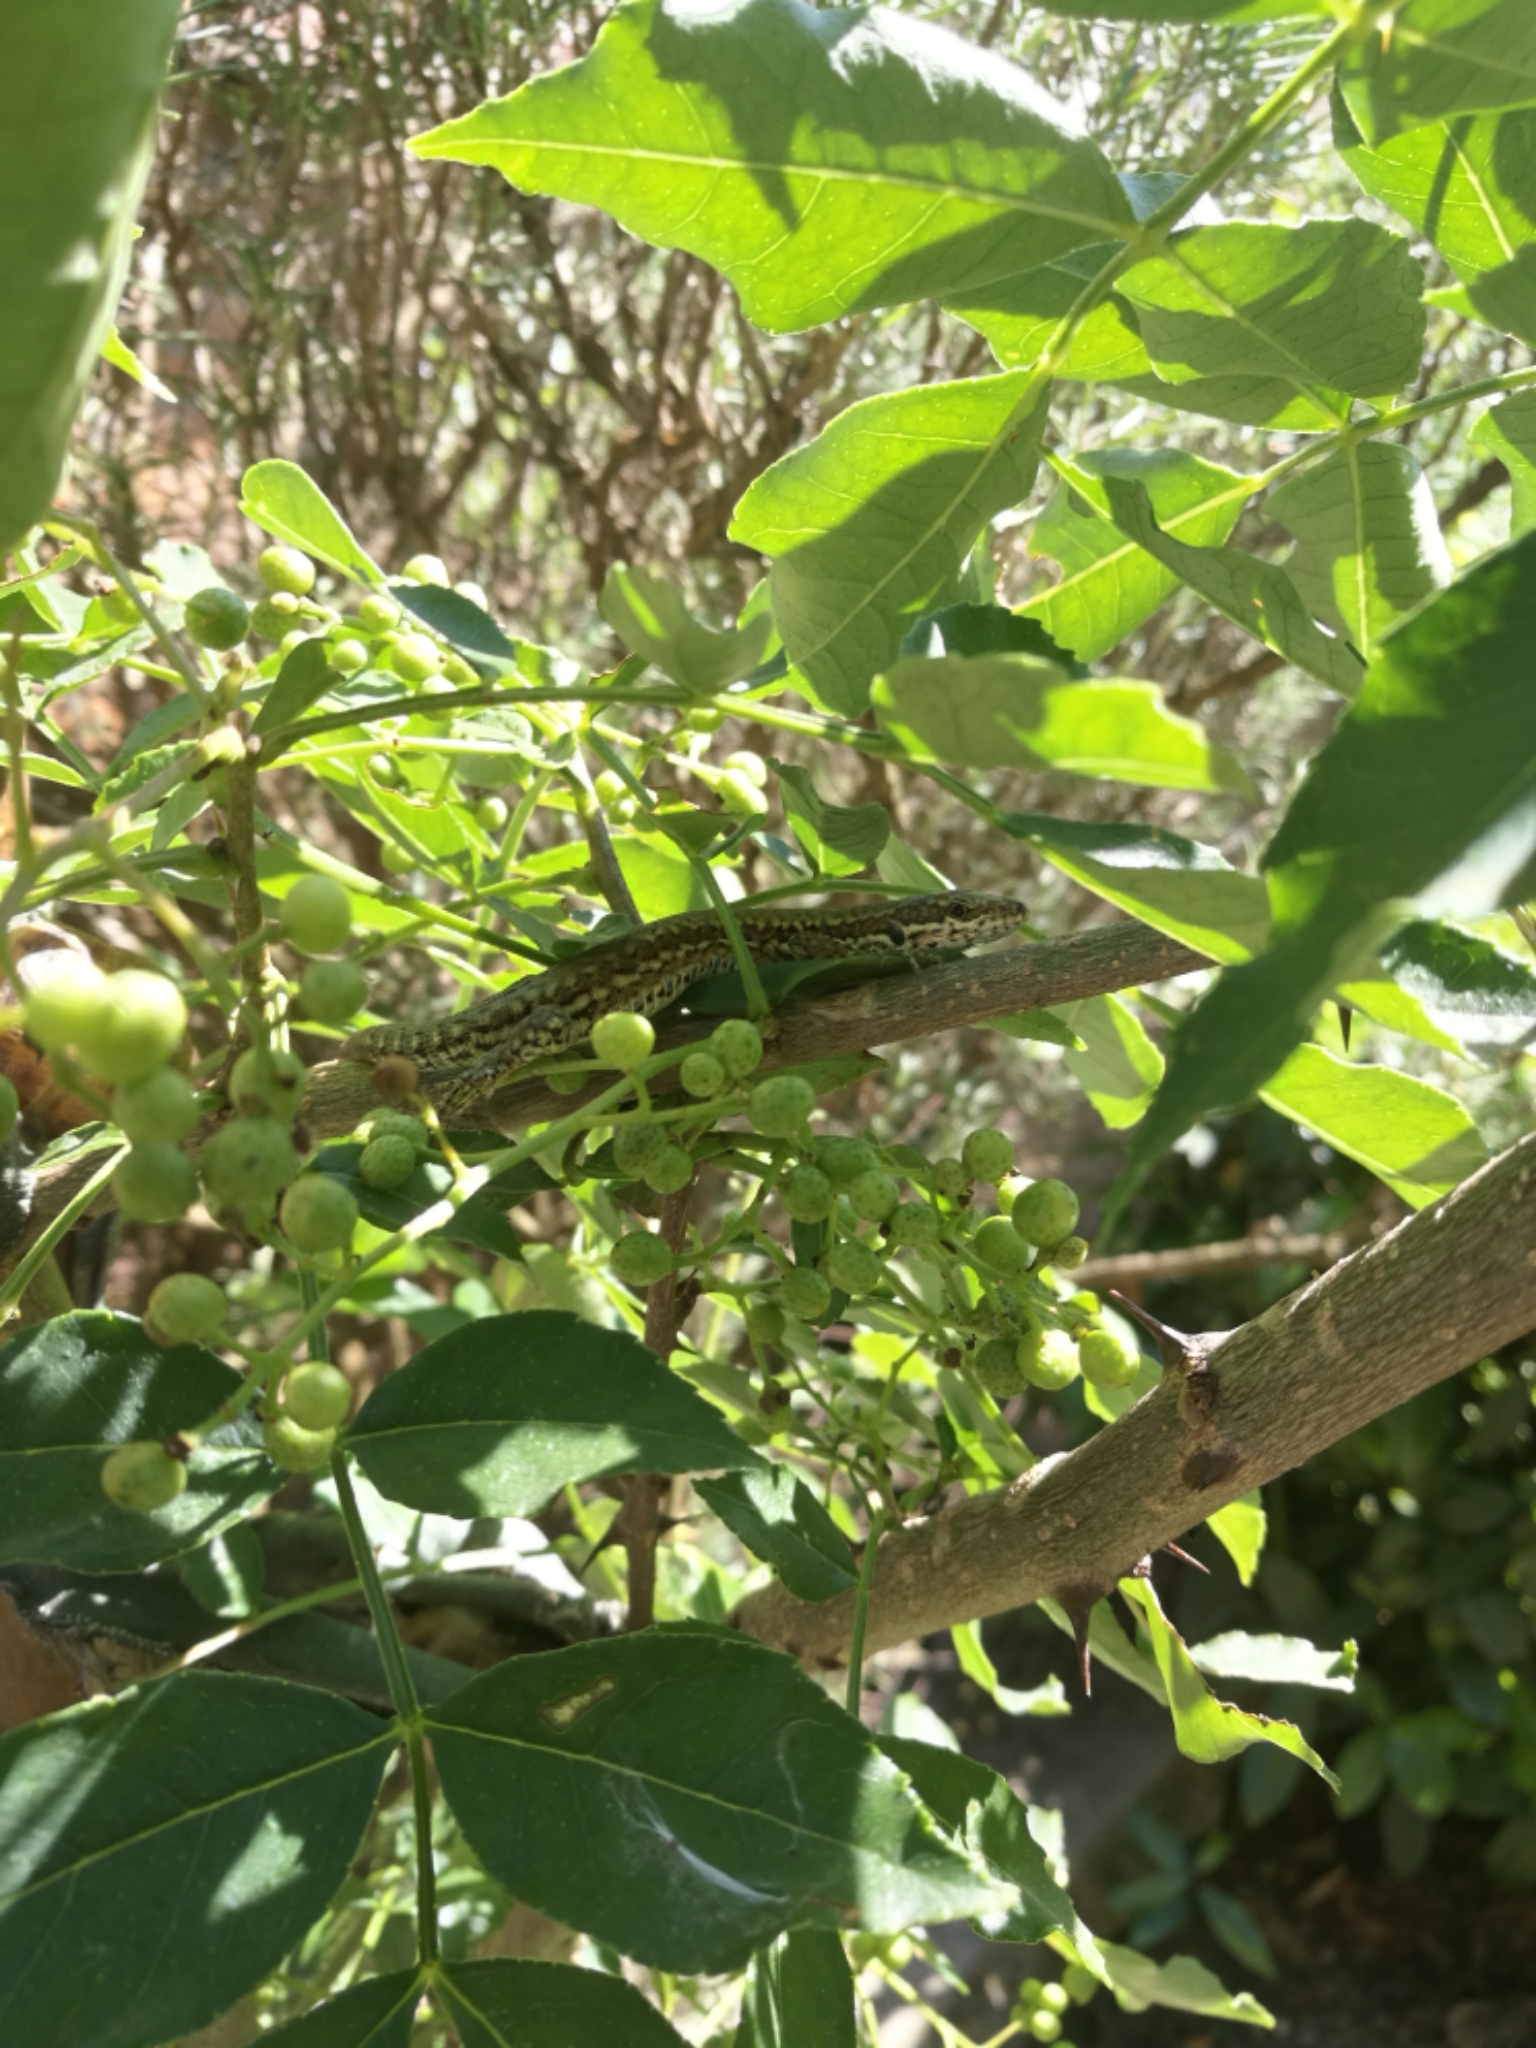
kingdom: Animalia
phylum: Chordata
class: Squamata
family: Lacertidae
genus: Podarcis
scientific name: Podarcis muralis
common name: Common wall lizard
